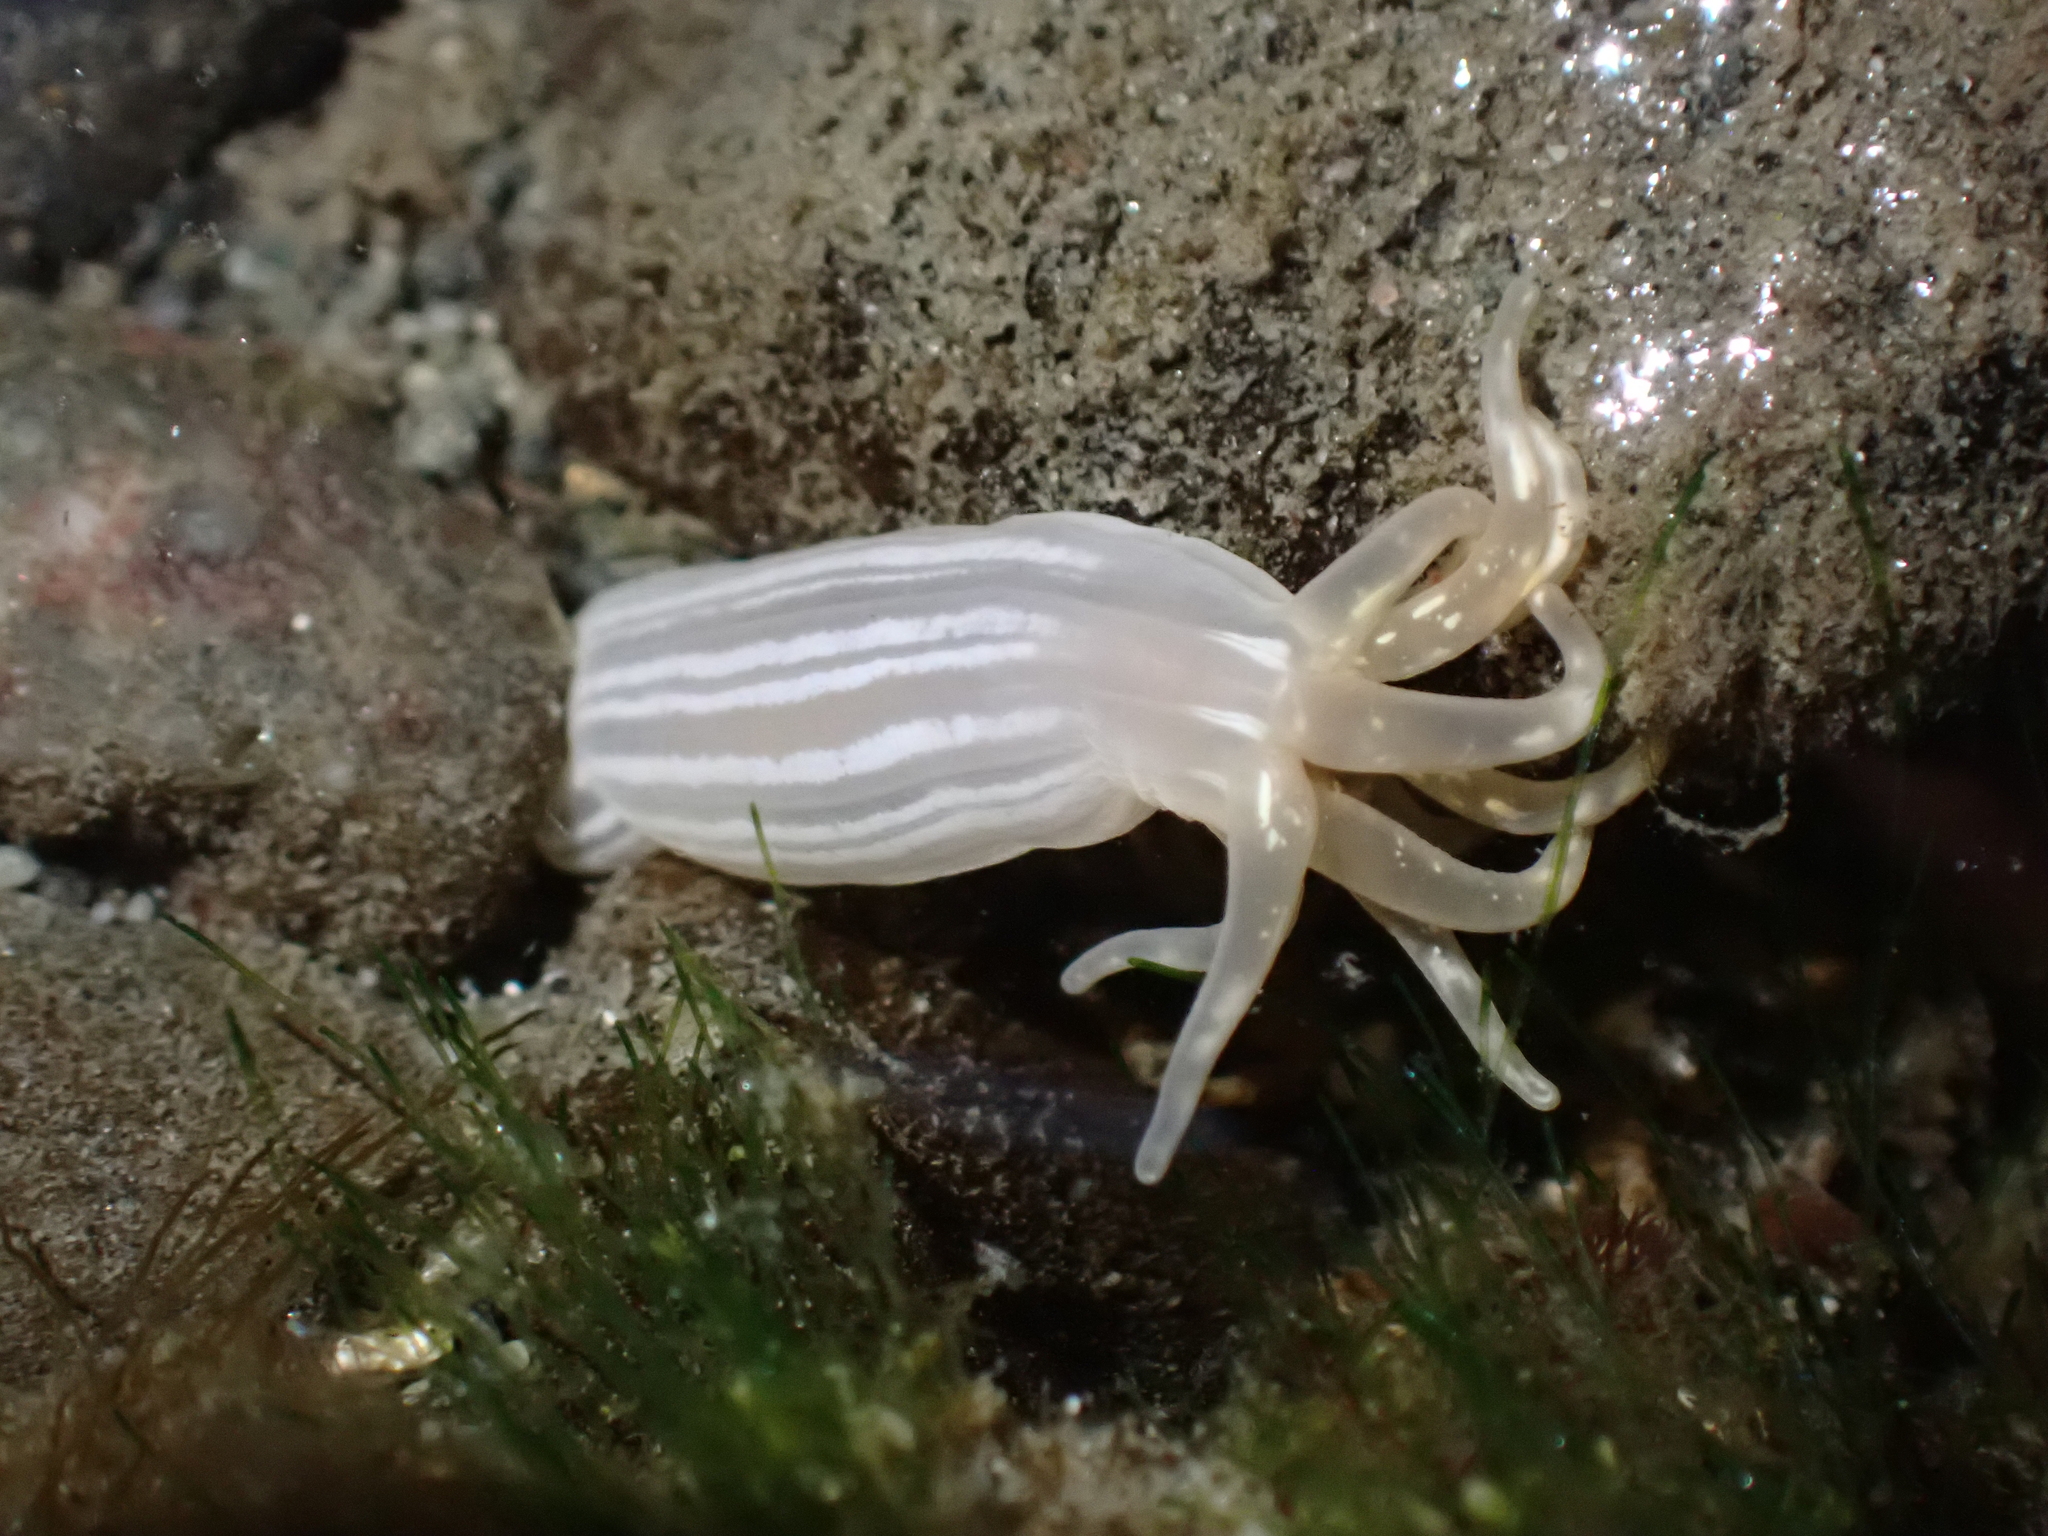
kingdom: Animalia
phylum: Cnidaria
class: Anthozoa
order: Actiniaria
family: Halcampidae
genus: Halcampa
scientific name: Halcampa decemtentaculata
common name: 10-tentacle burrowing anemone
